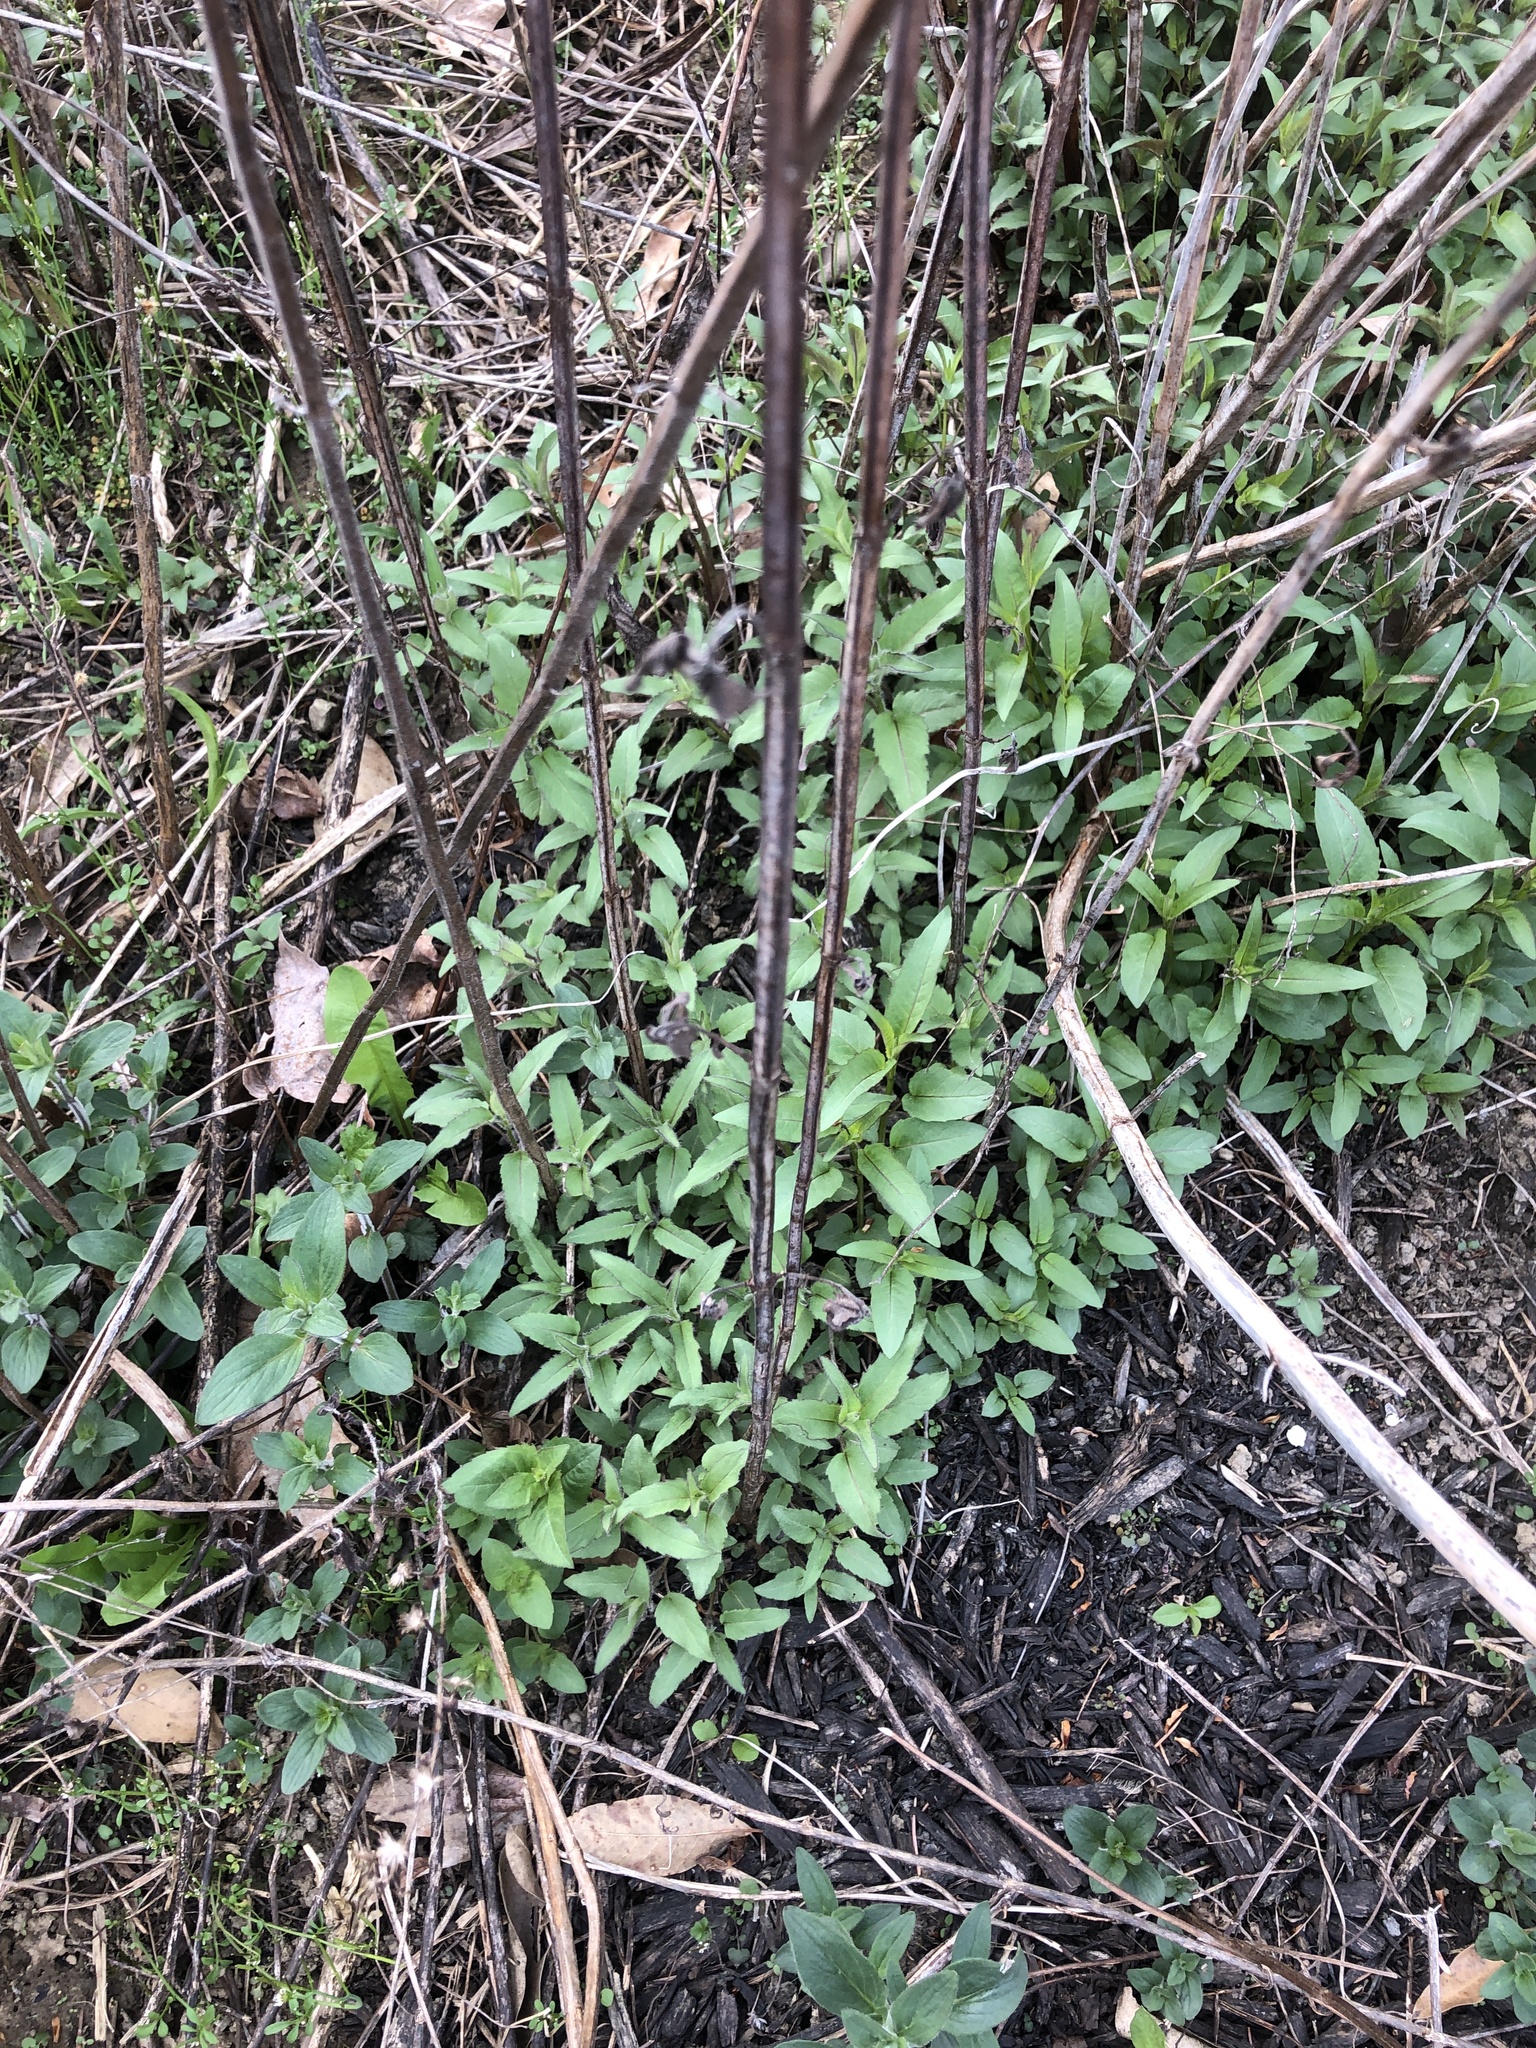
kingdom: Plantae
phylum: Tracheophyta
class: Magnoliopsida
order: Lamiales
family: Lamiaceae
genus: Monarda
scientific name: Monarda fistulosa
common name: Purple beebalm
